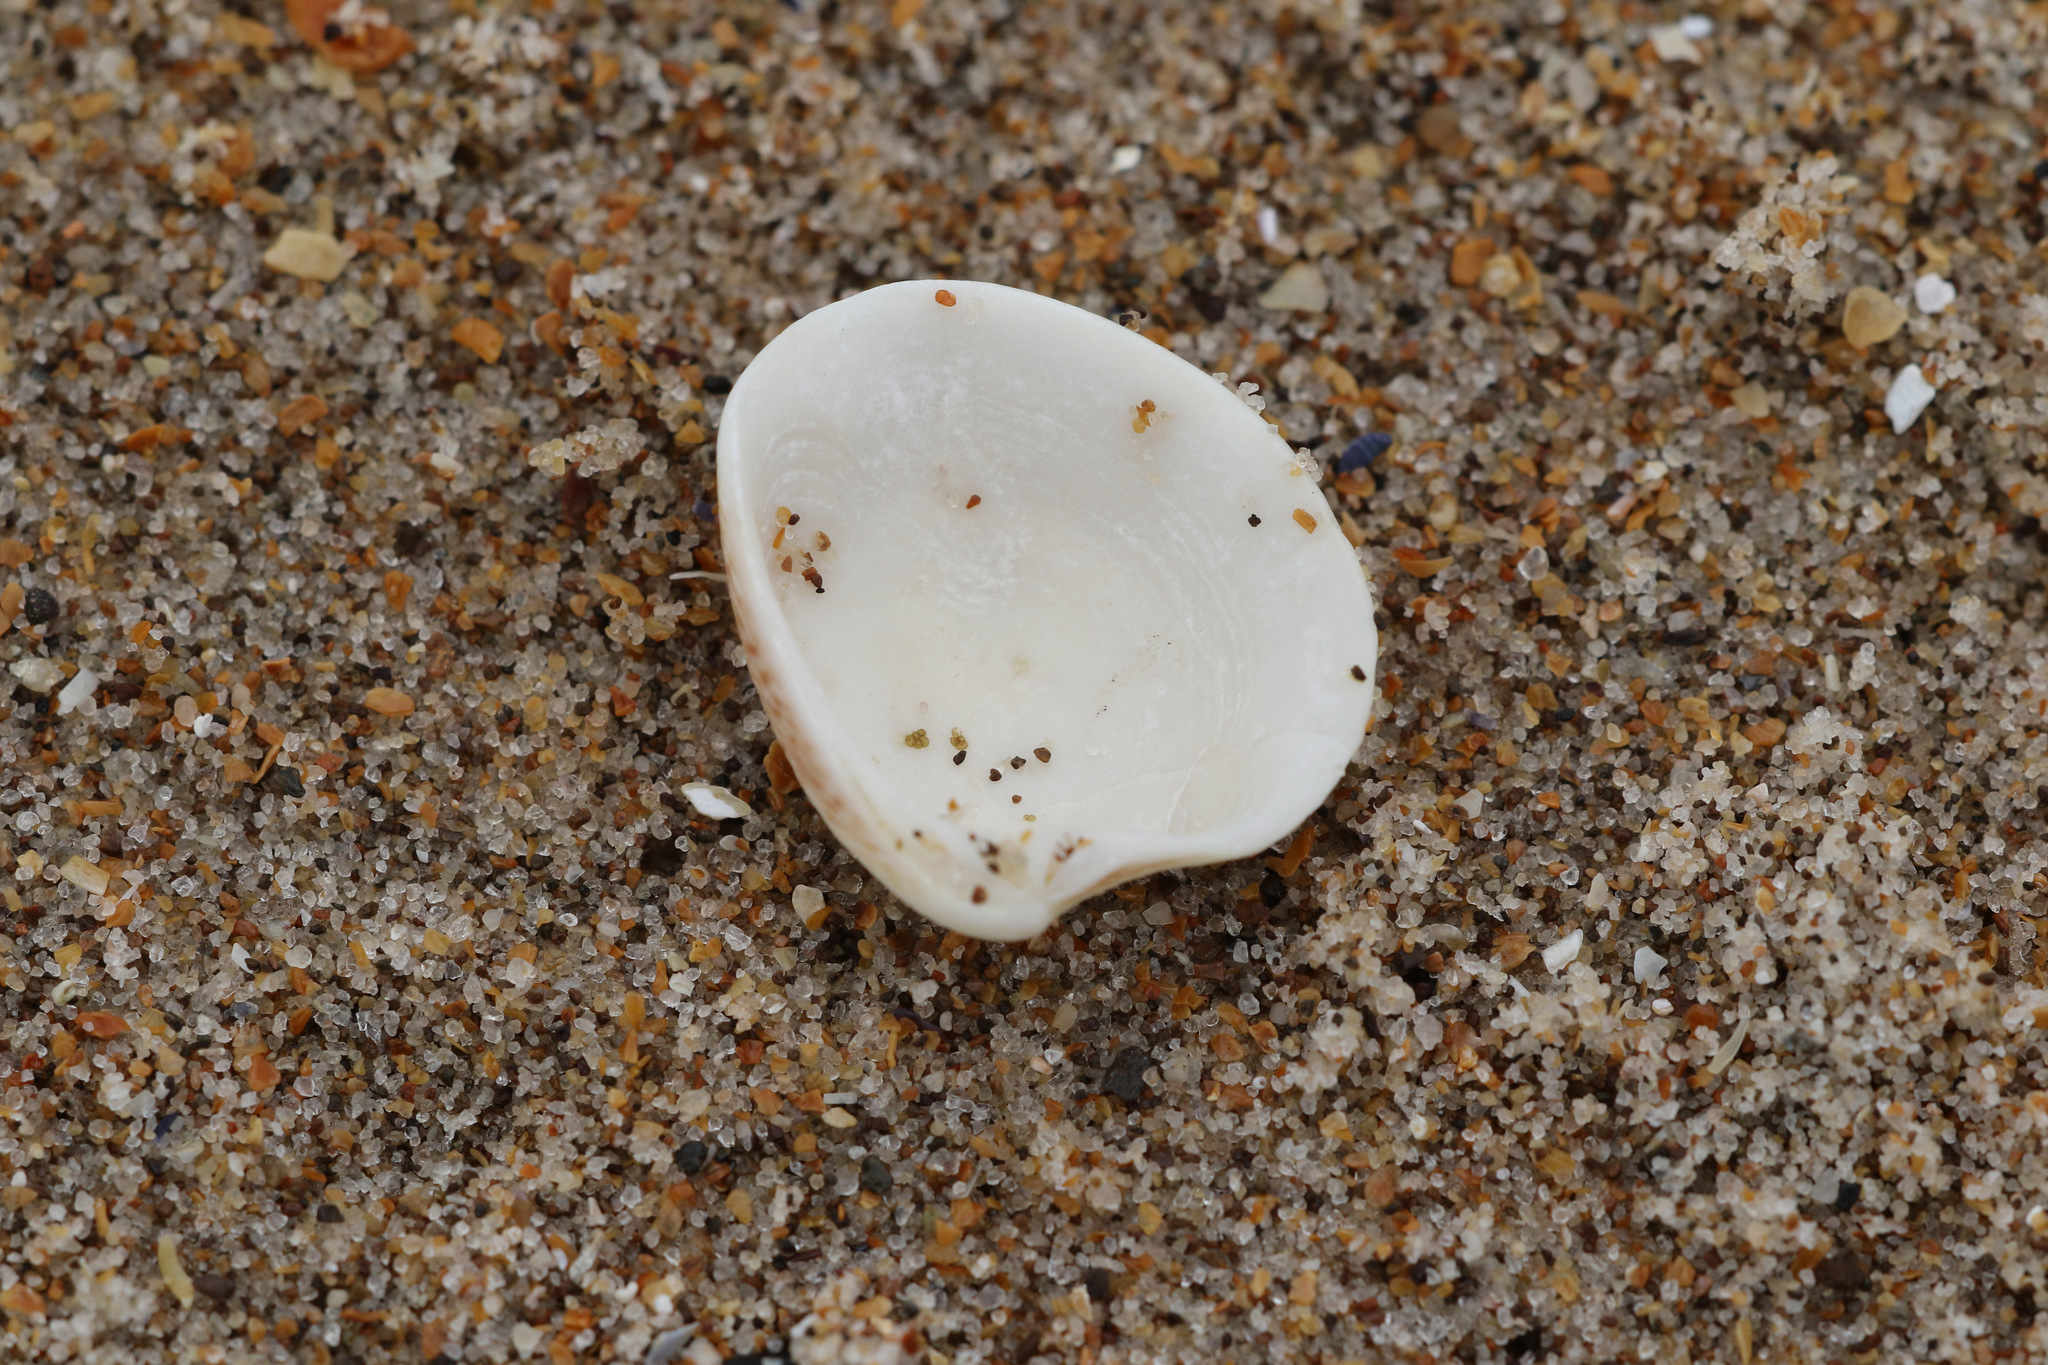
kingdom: Animalia
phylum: Mollusca
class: Bivalvia
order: Venerida
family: Veneridae
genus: Chamelea
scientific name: Chamelea striatula
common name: Striped venus
